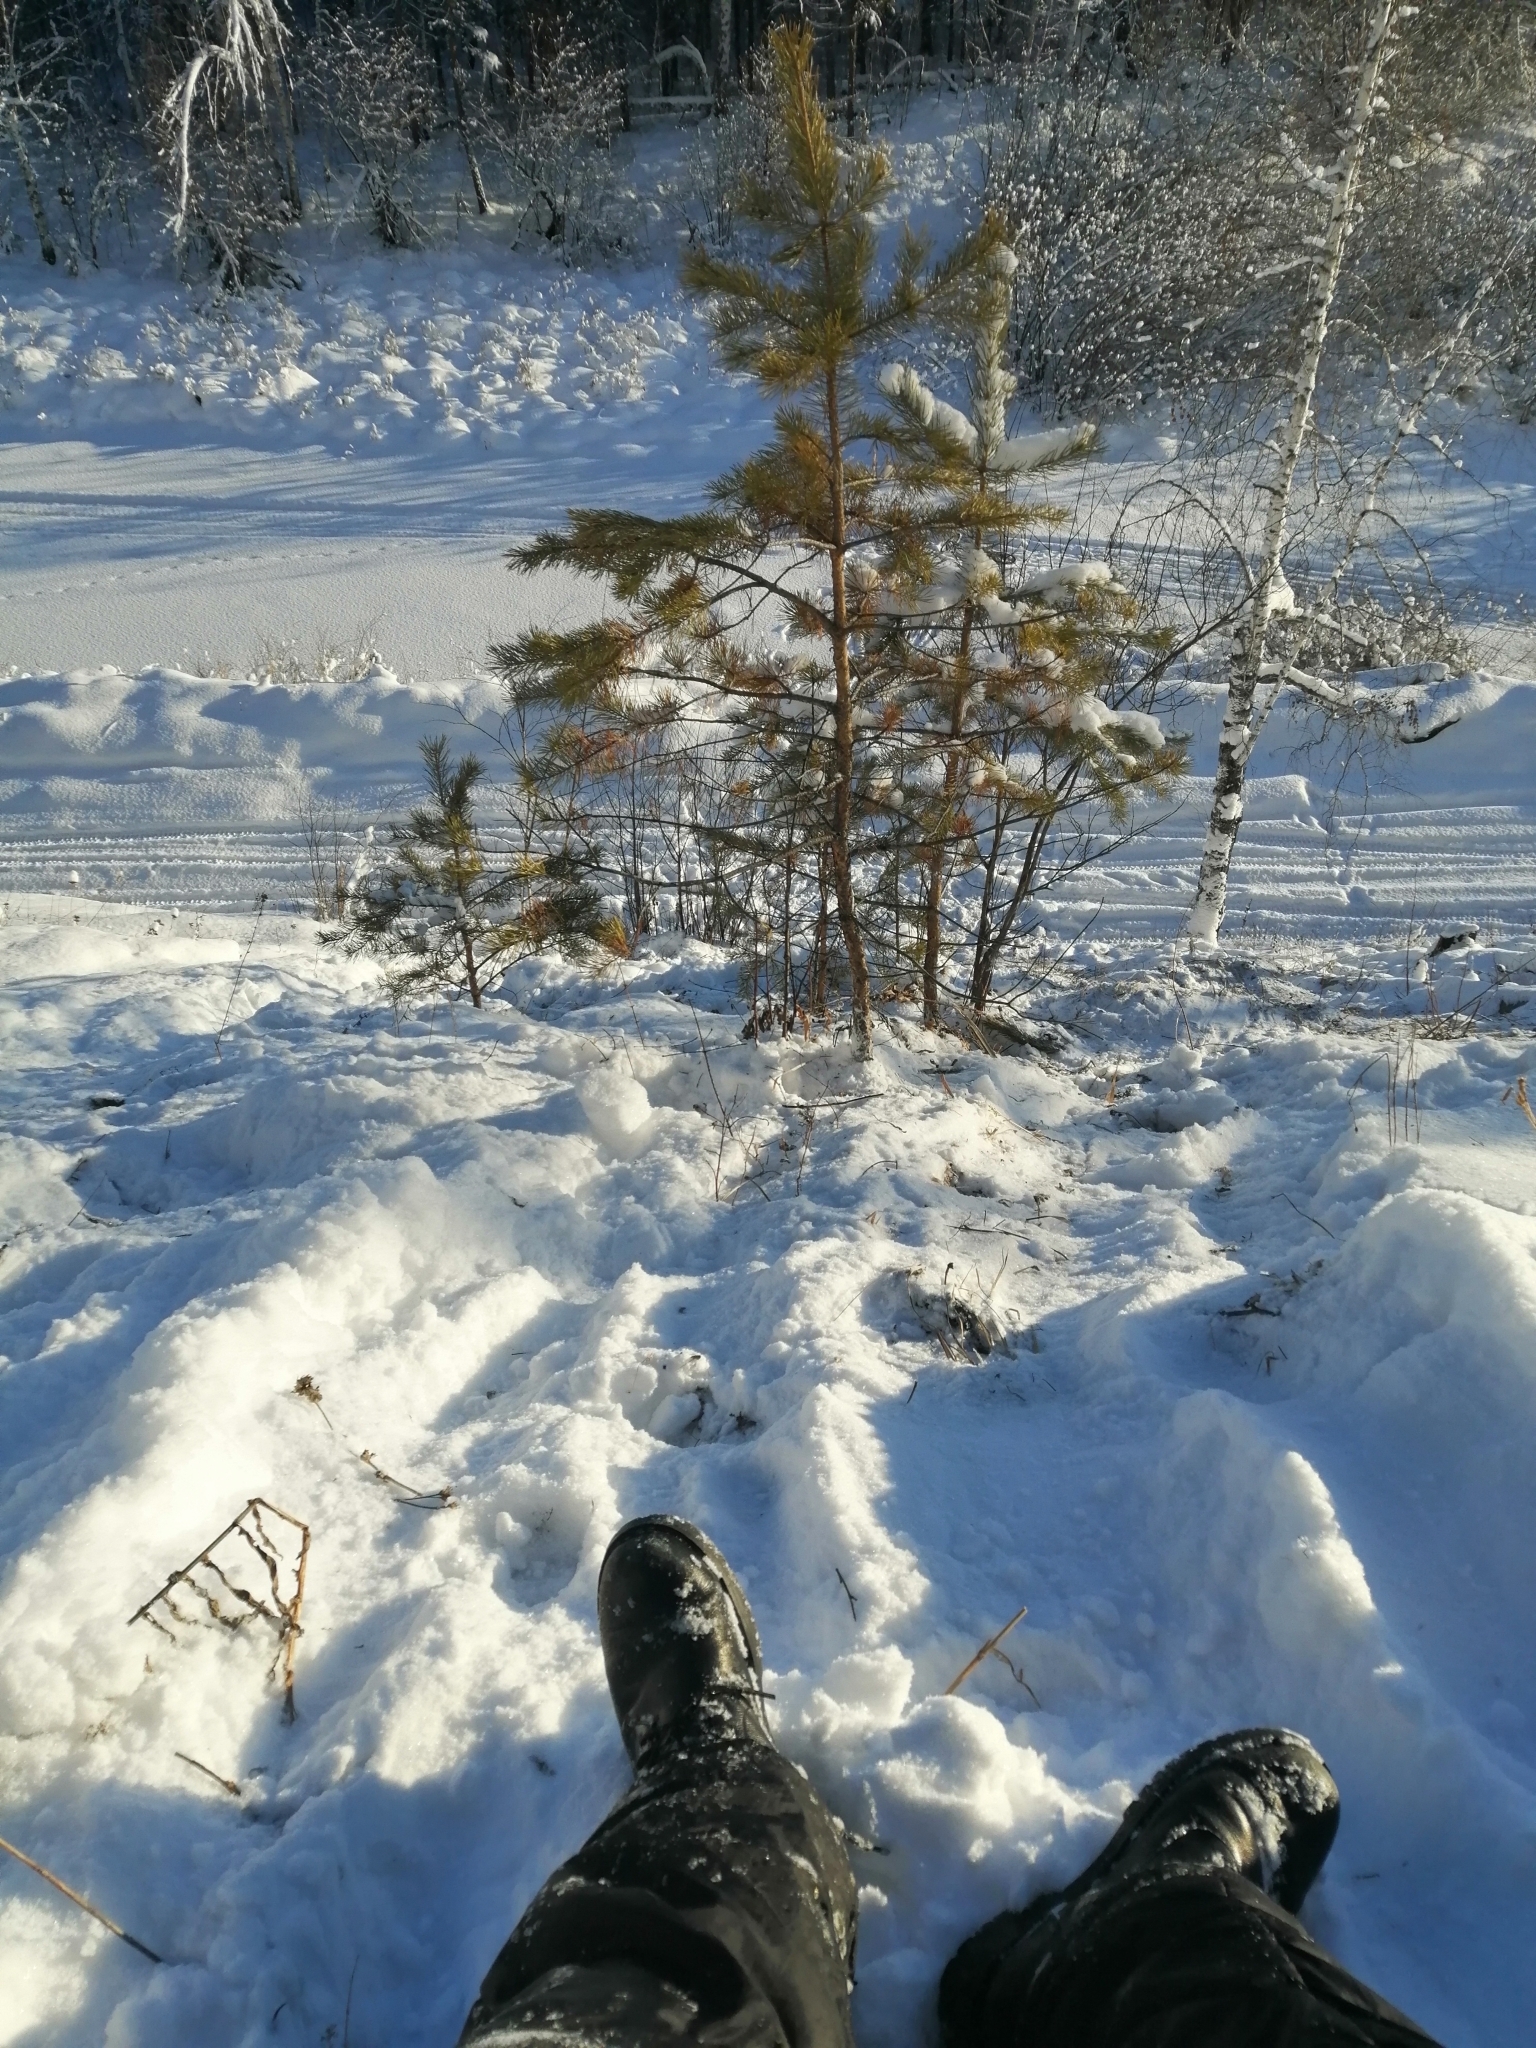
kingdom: Plantae
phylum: Tracheophyta
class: Pinopsida
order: Pinales
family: Pinaceae
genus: Pinus
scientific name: Pinus sylvestris
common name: Scots pine
